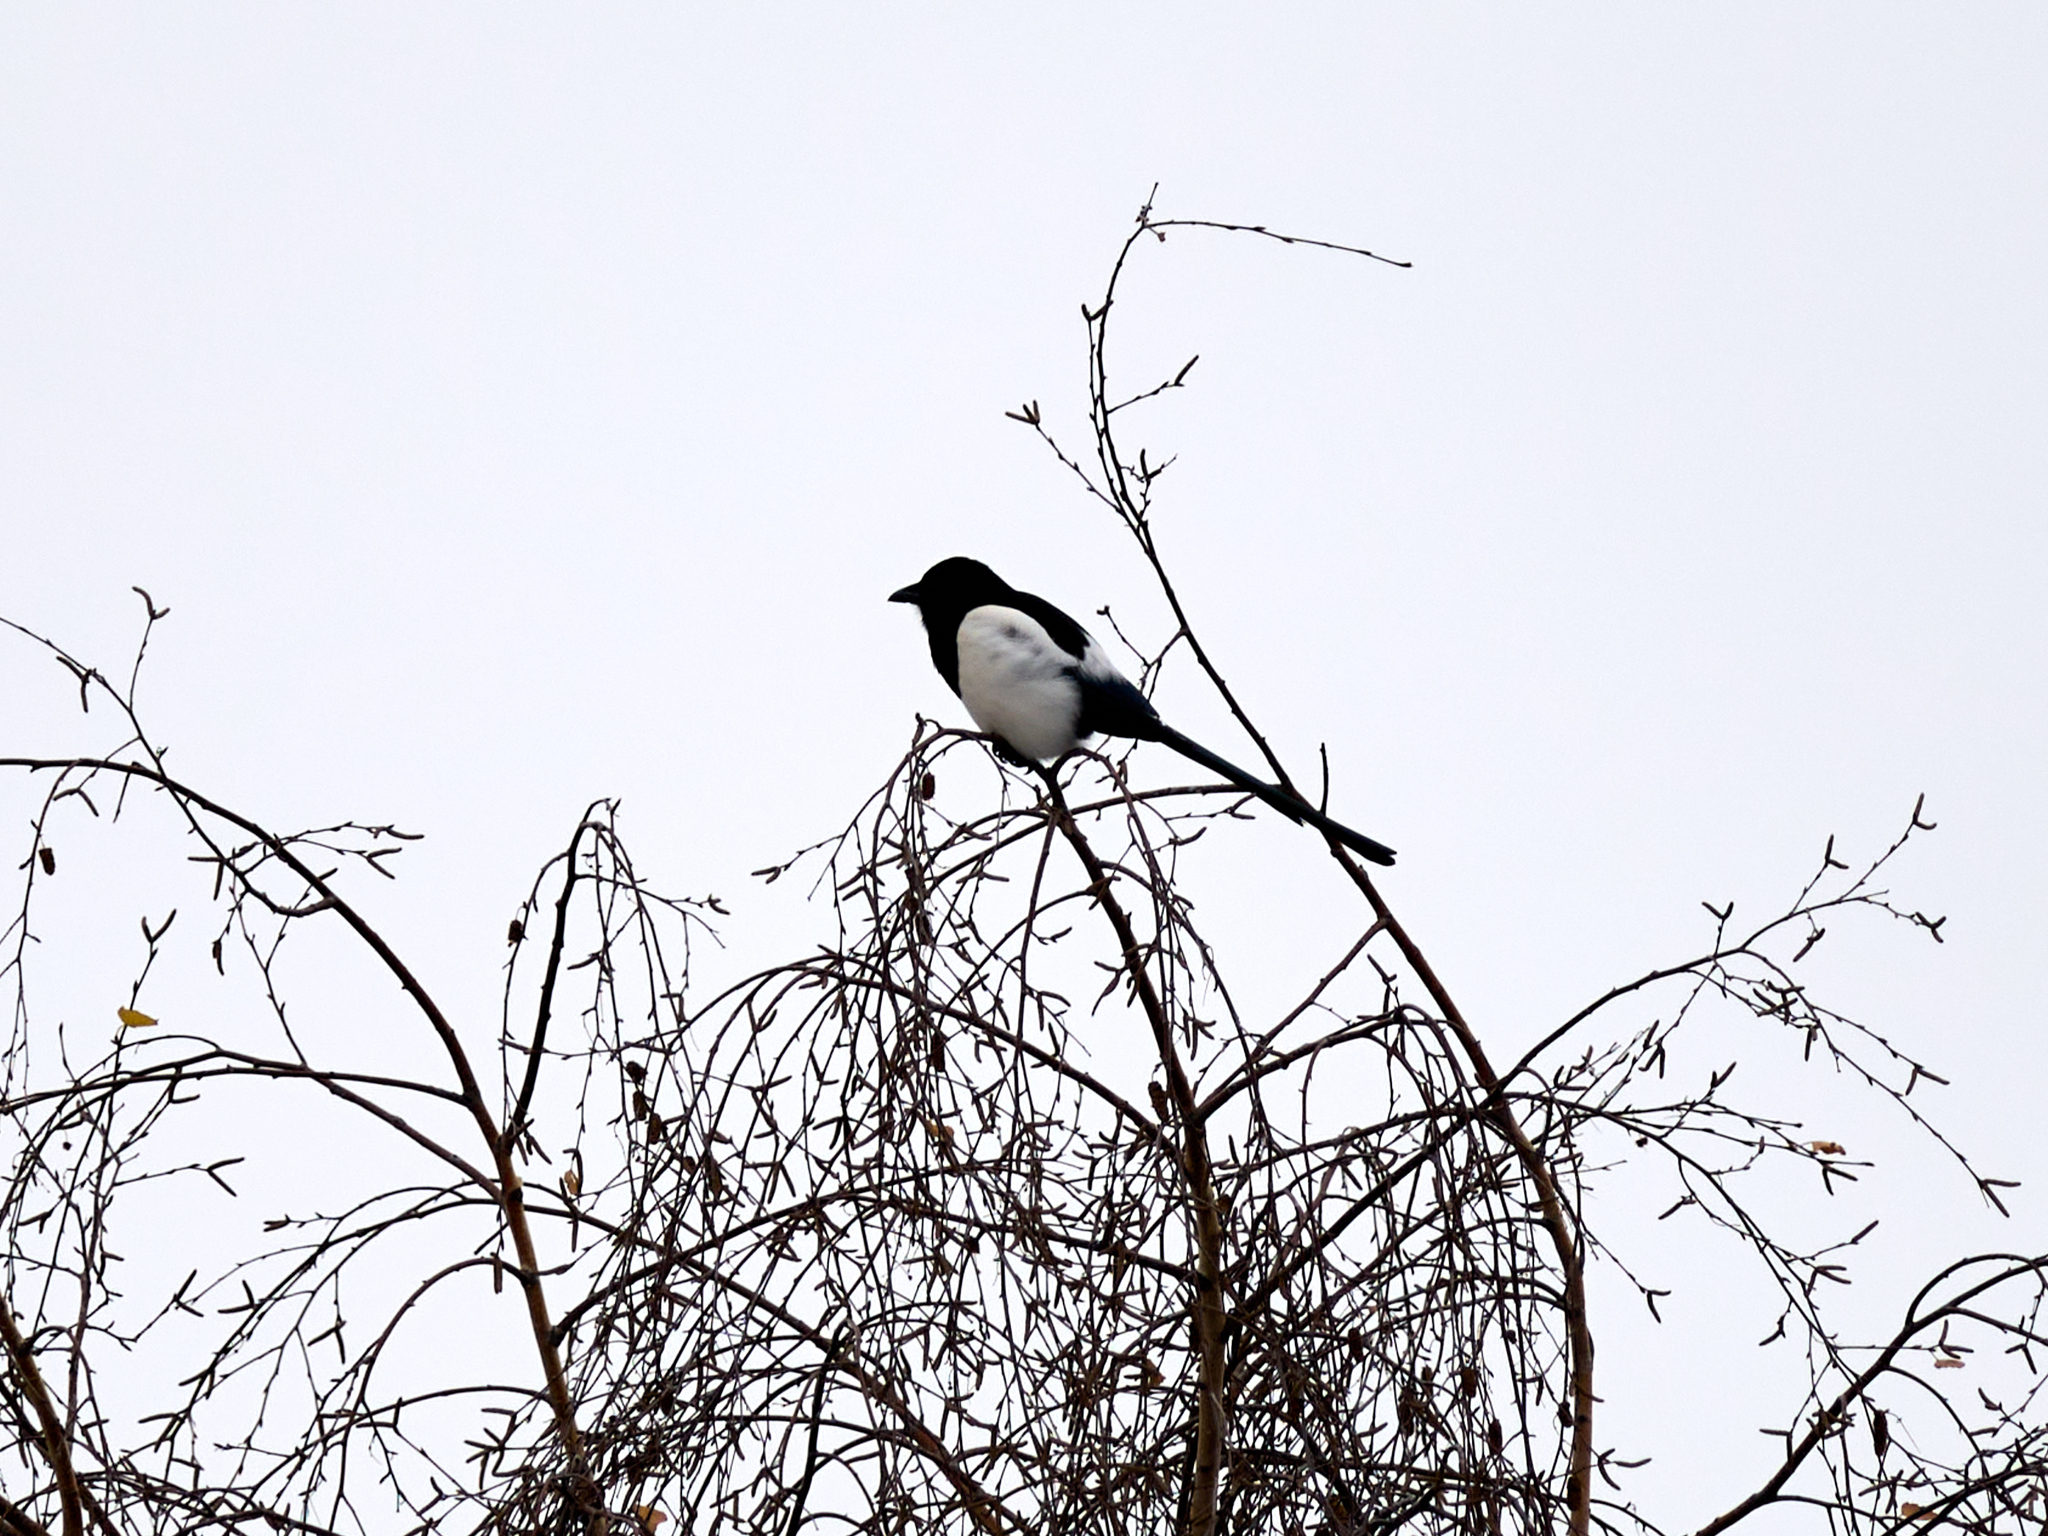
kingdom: Animalia
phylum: Chordata
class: Aves
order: Passeriformes
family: Corvidae
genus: Pica
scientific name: Pica pica
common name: Eurasian magpie
